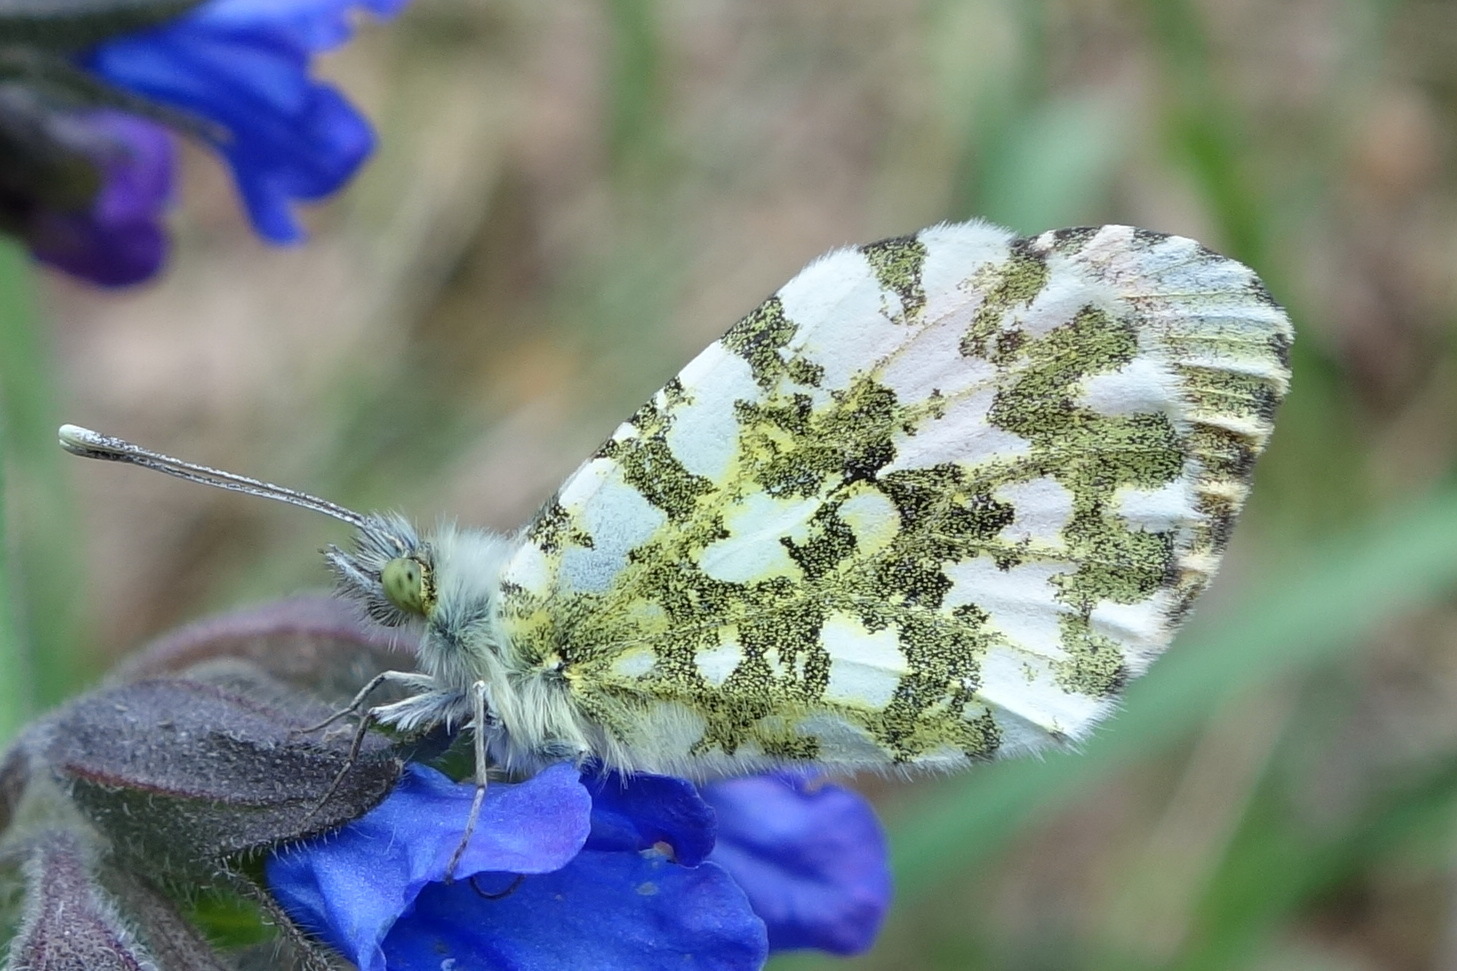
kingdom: Animalia
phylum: Arthropoda
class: Insecta
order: Lepidoptera
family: Pieridae
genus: Anthocharis
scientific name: Anthocharis cardamines
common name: Orange-tip
